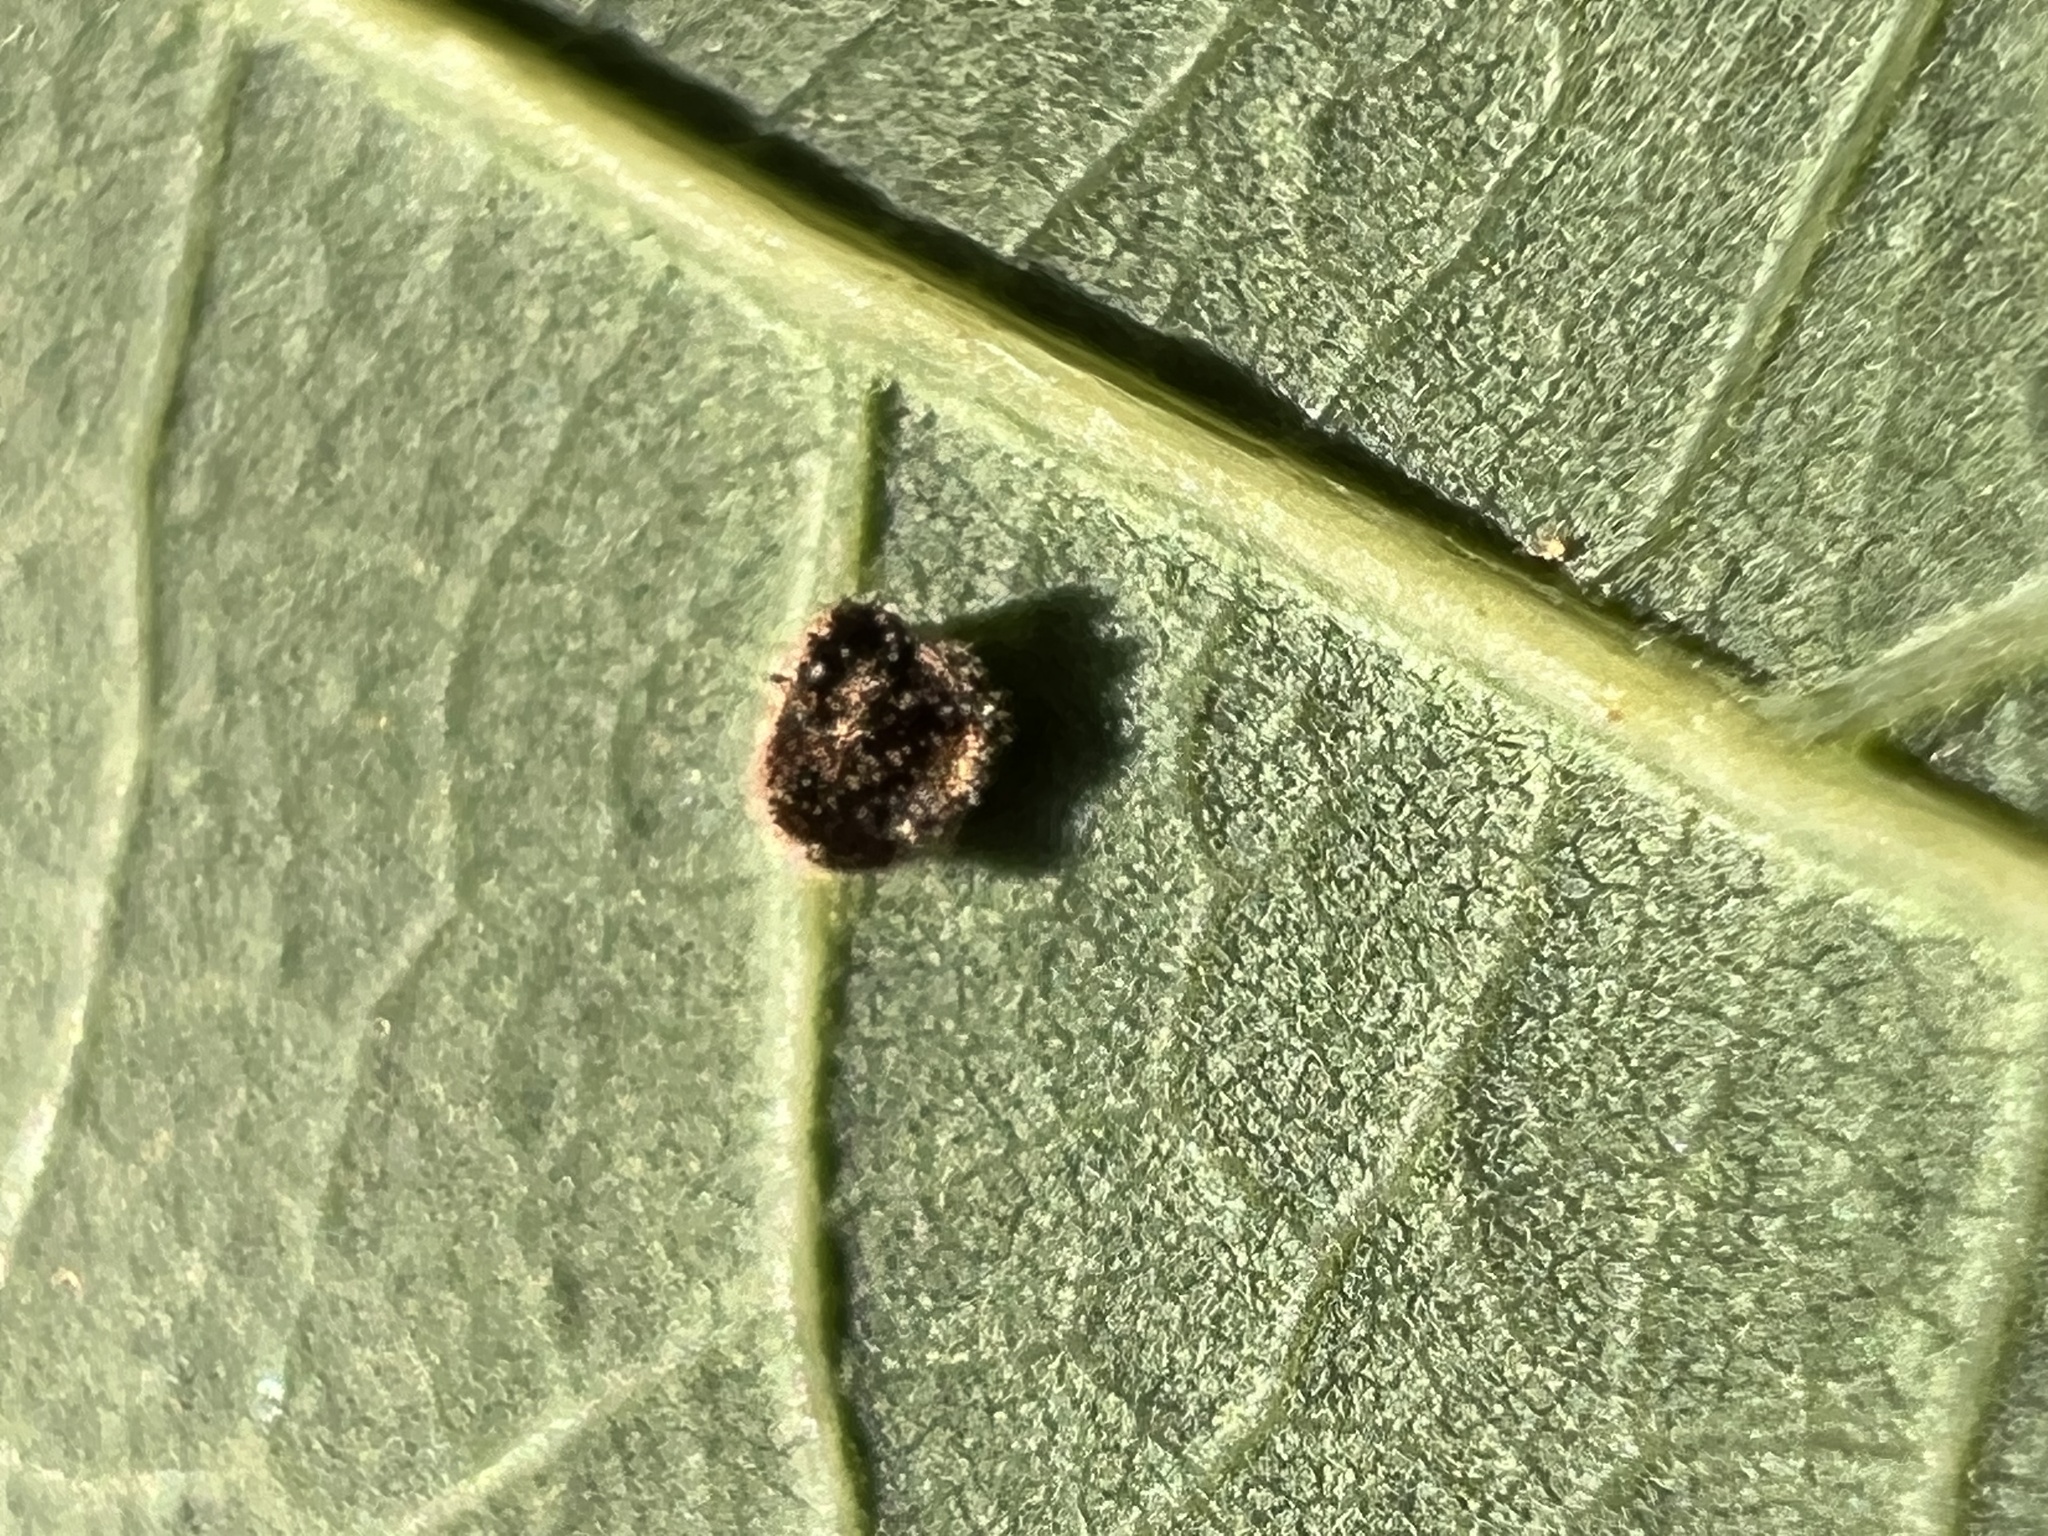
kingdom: Animalia
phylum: Arthropoda
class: Insecta
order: Hymenoptera
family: Cynipidae
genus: Neuroterus
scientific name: Neuroterus
